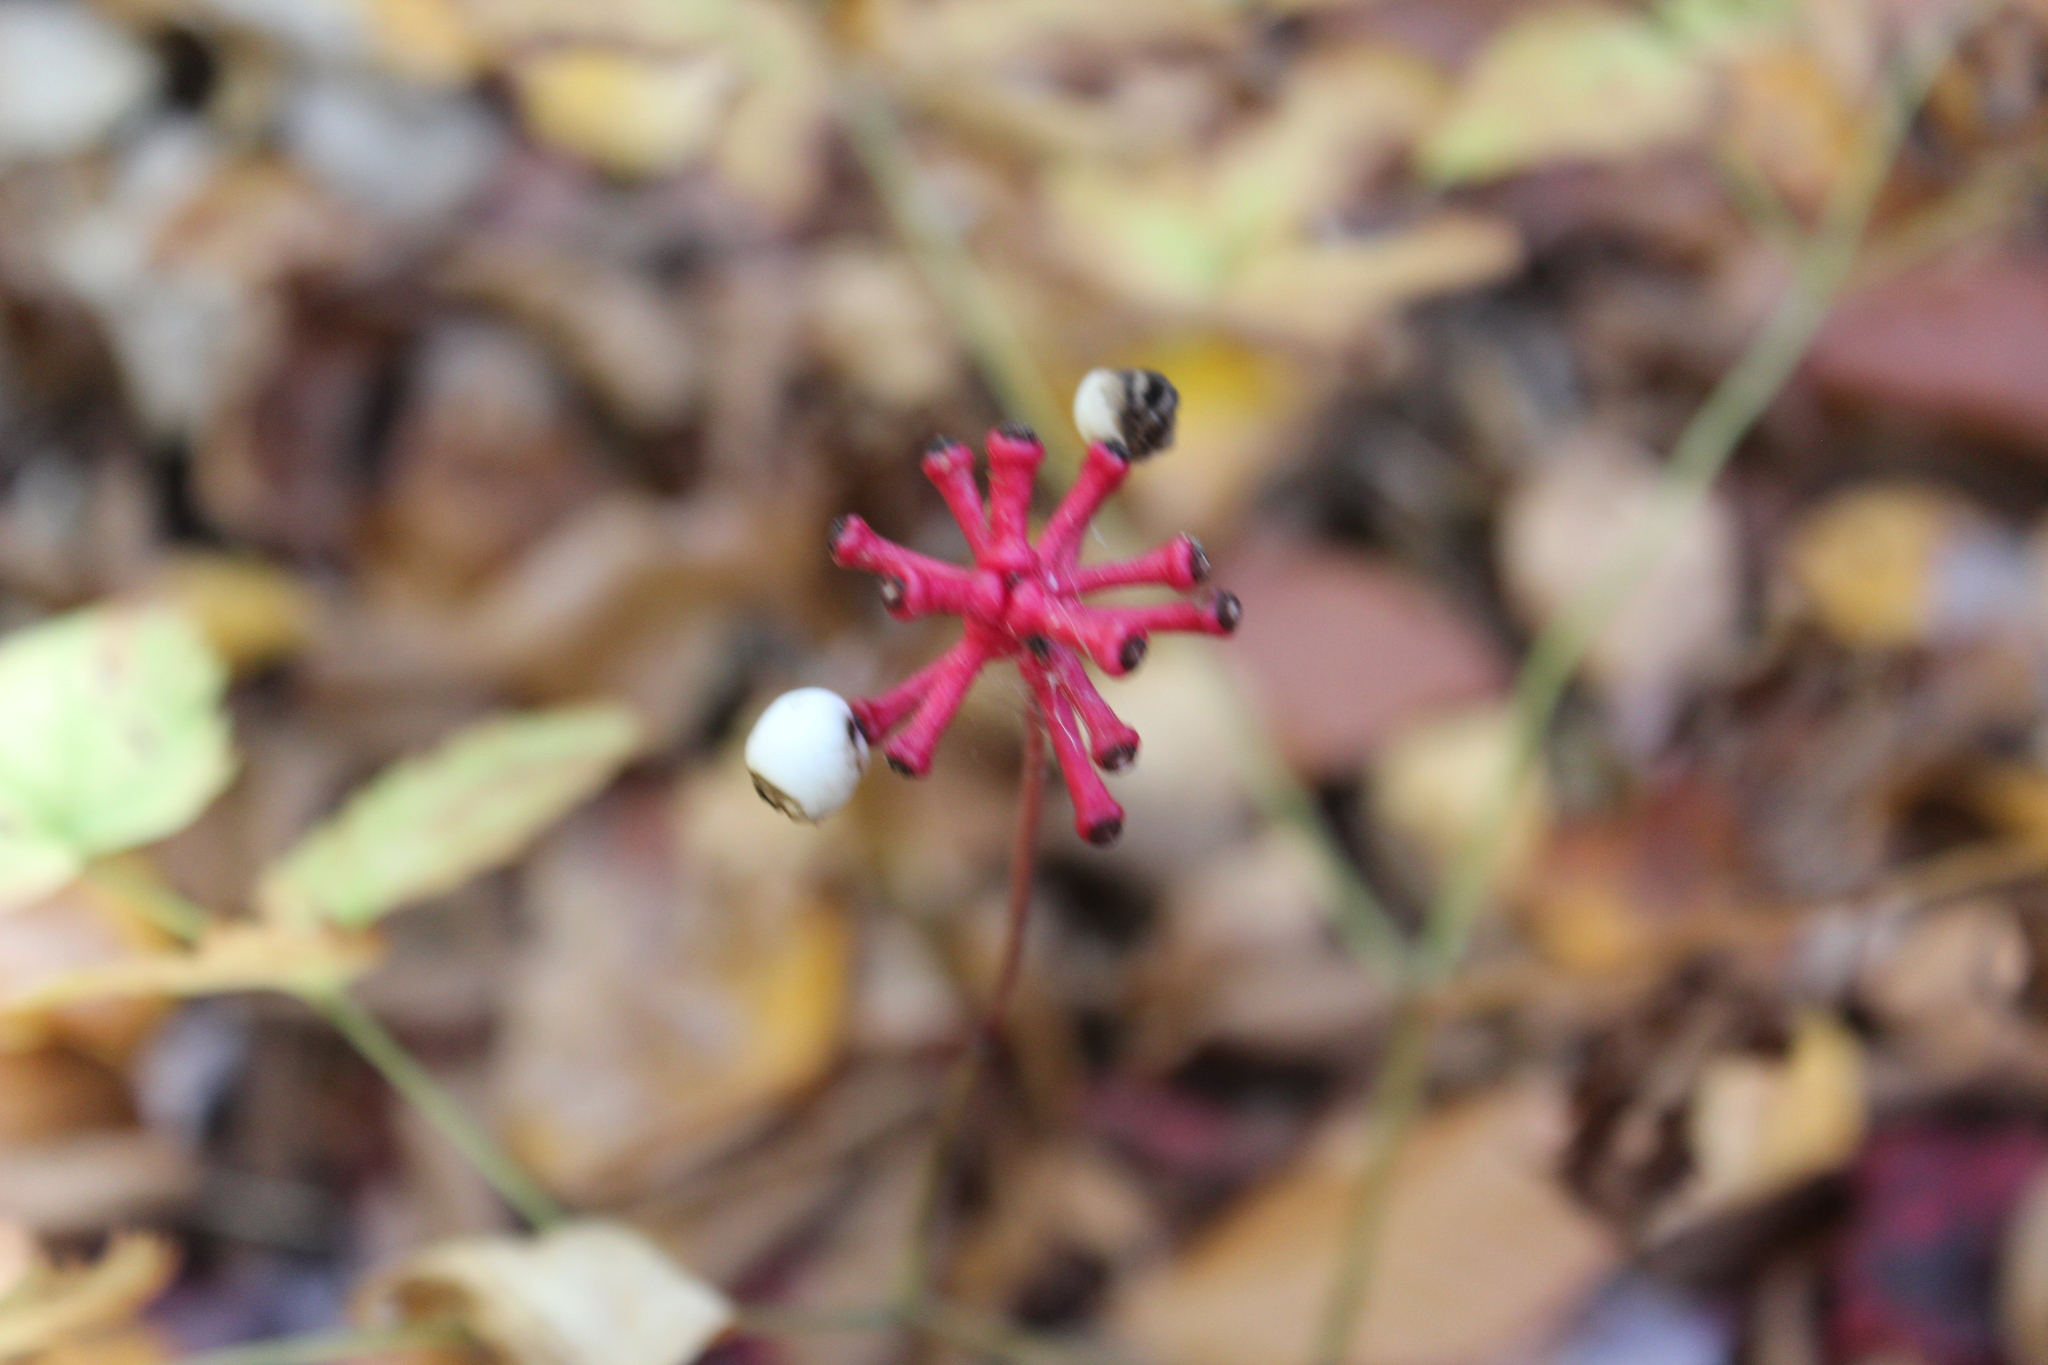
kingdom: Plantae
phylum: Tracheophyta
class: Magnoliopsida
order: Ranunculales
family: Ranunculaceae
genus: Actaea
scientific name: Actaea pachypoda
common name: Doll's-eyes
